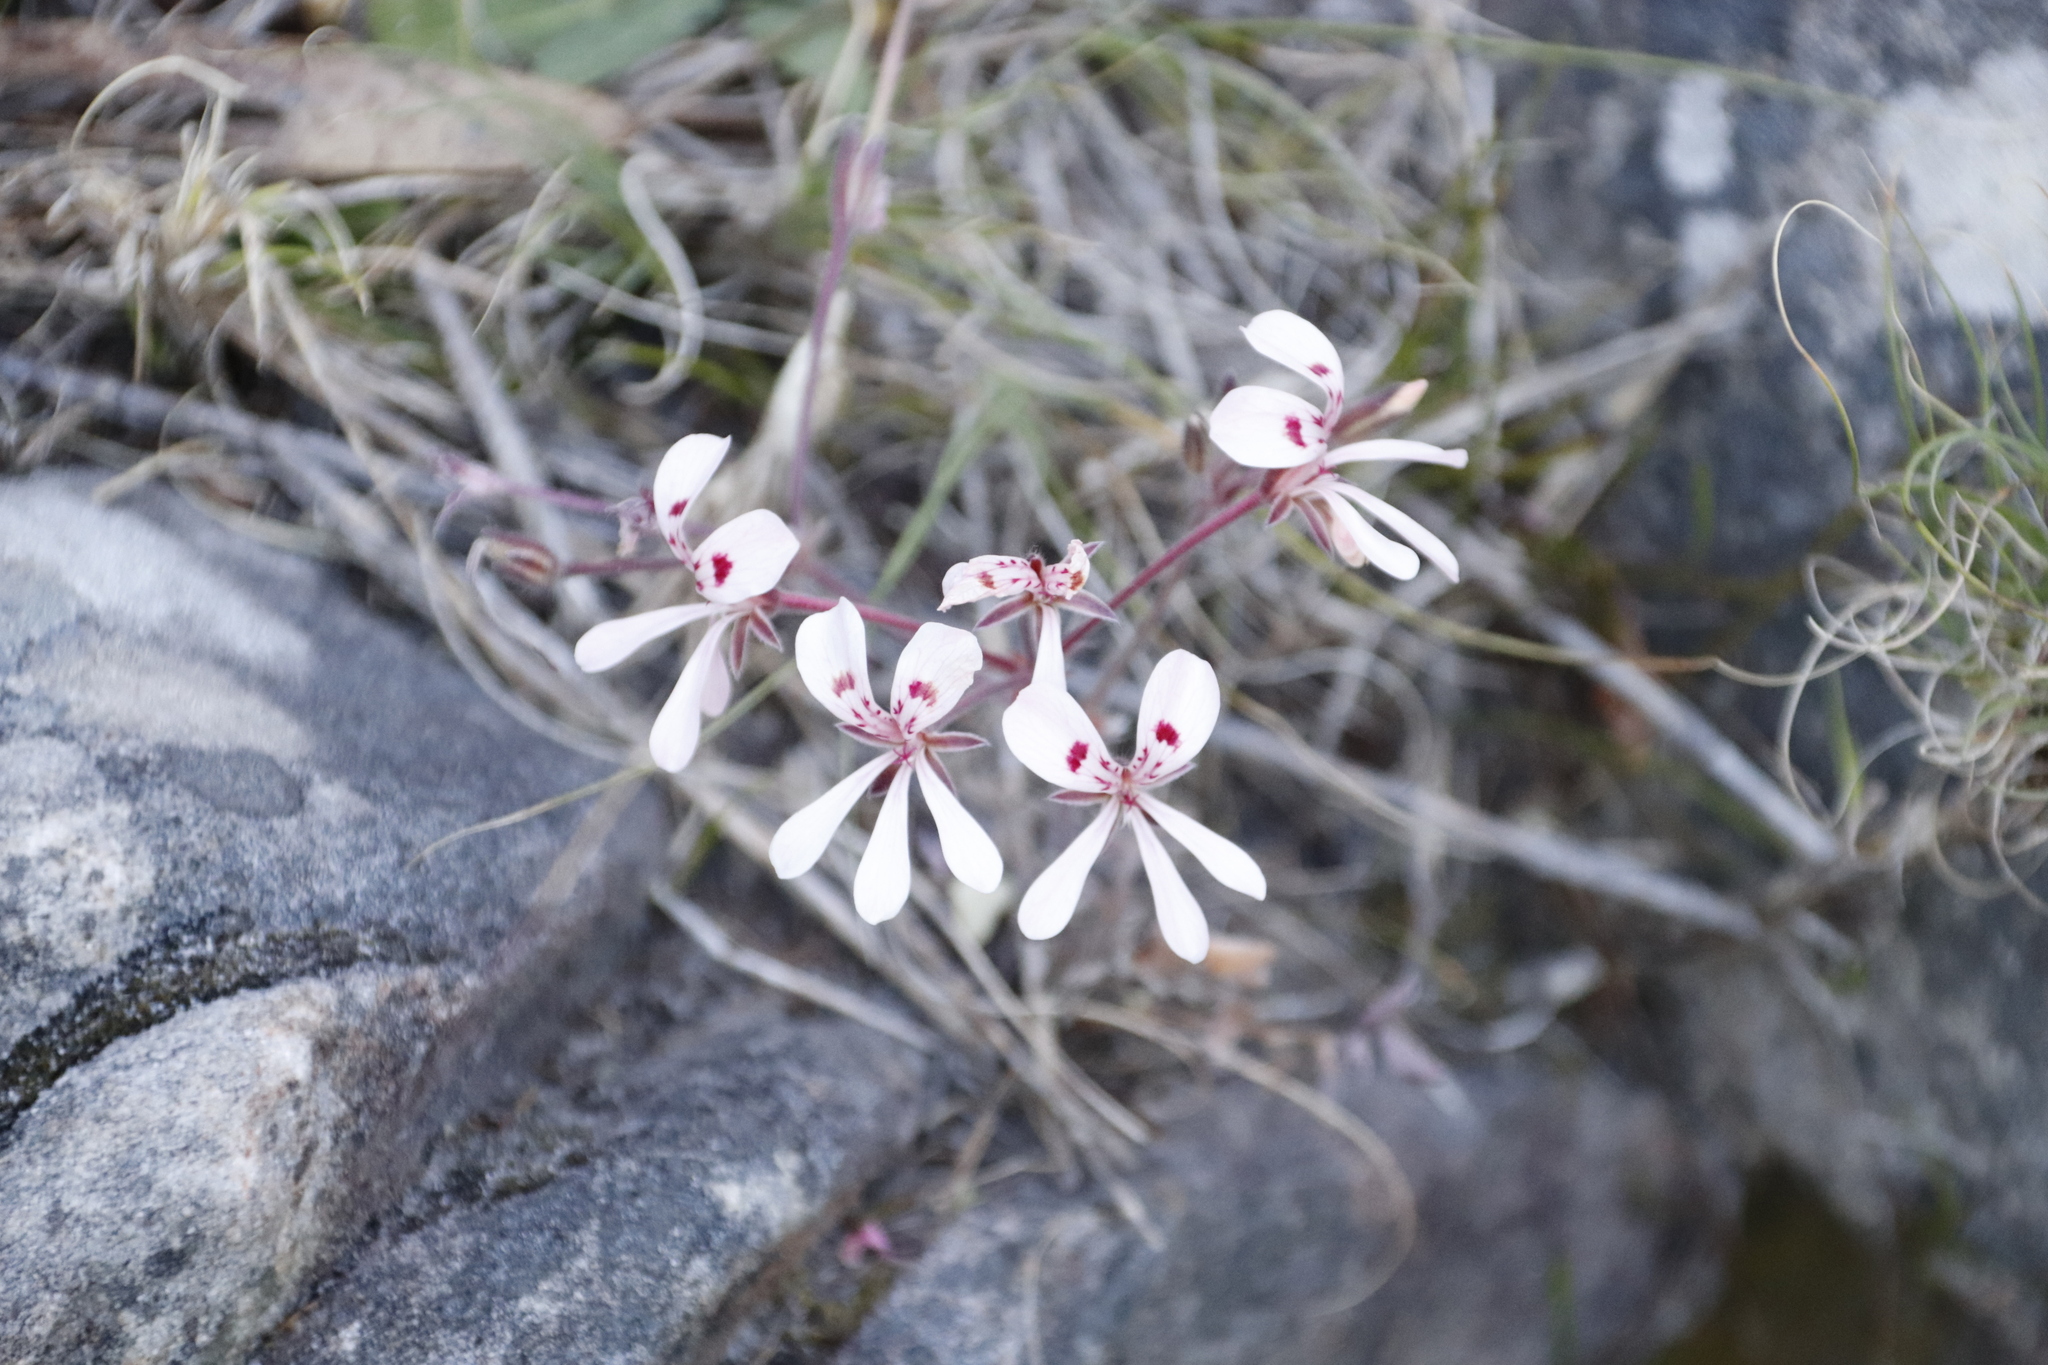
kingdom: Plantae
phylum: Tracheophyta
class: Magnoliopsida
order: Geraniales
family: Geraniaceae
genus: Pelargonium
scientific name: Pelargonium pinnatum
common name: Pinnated pelargonium
